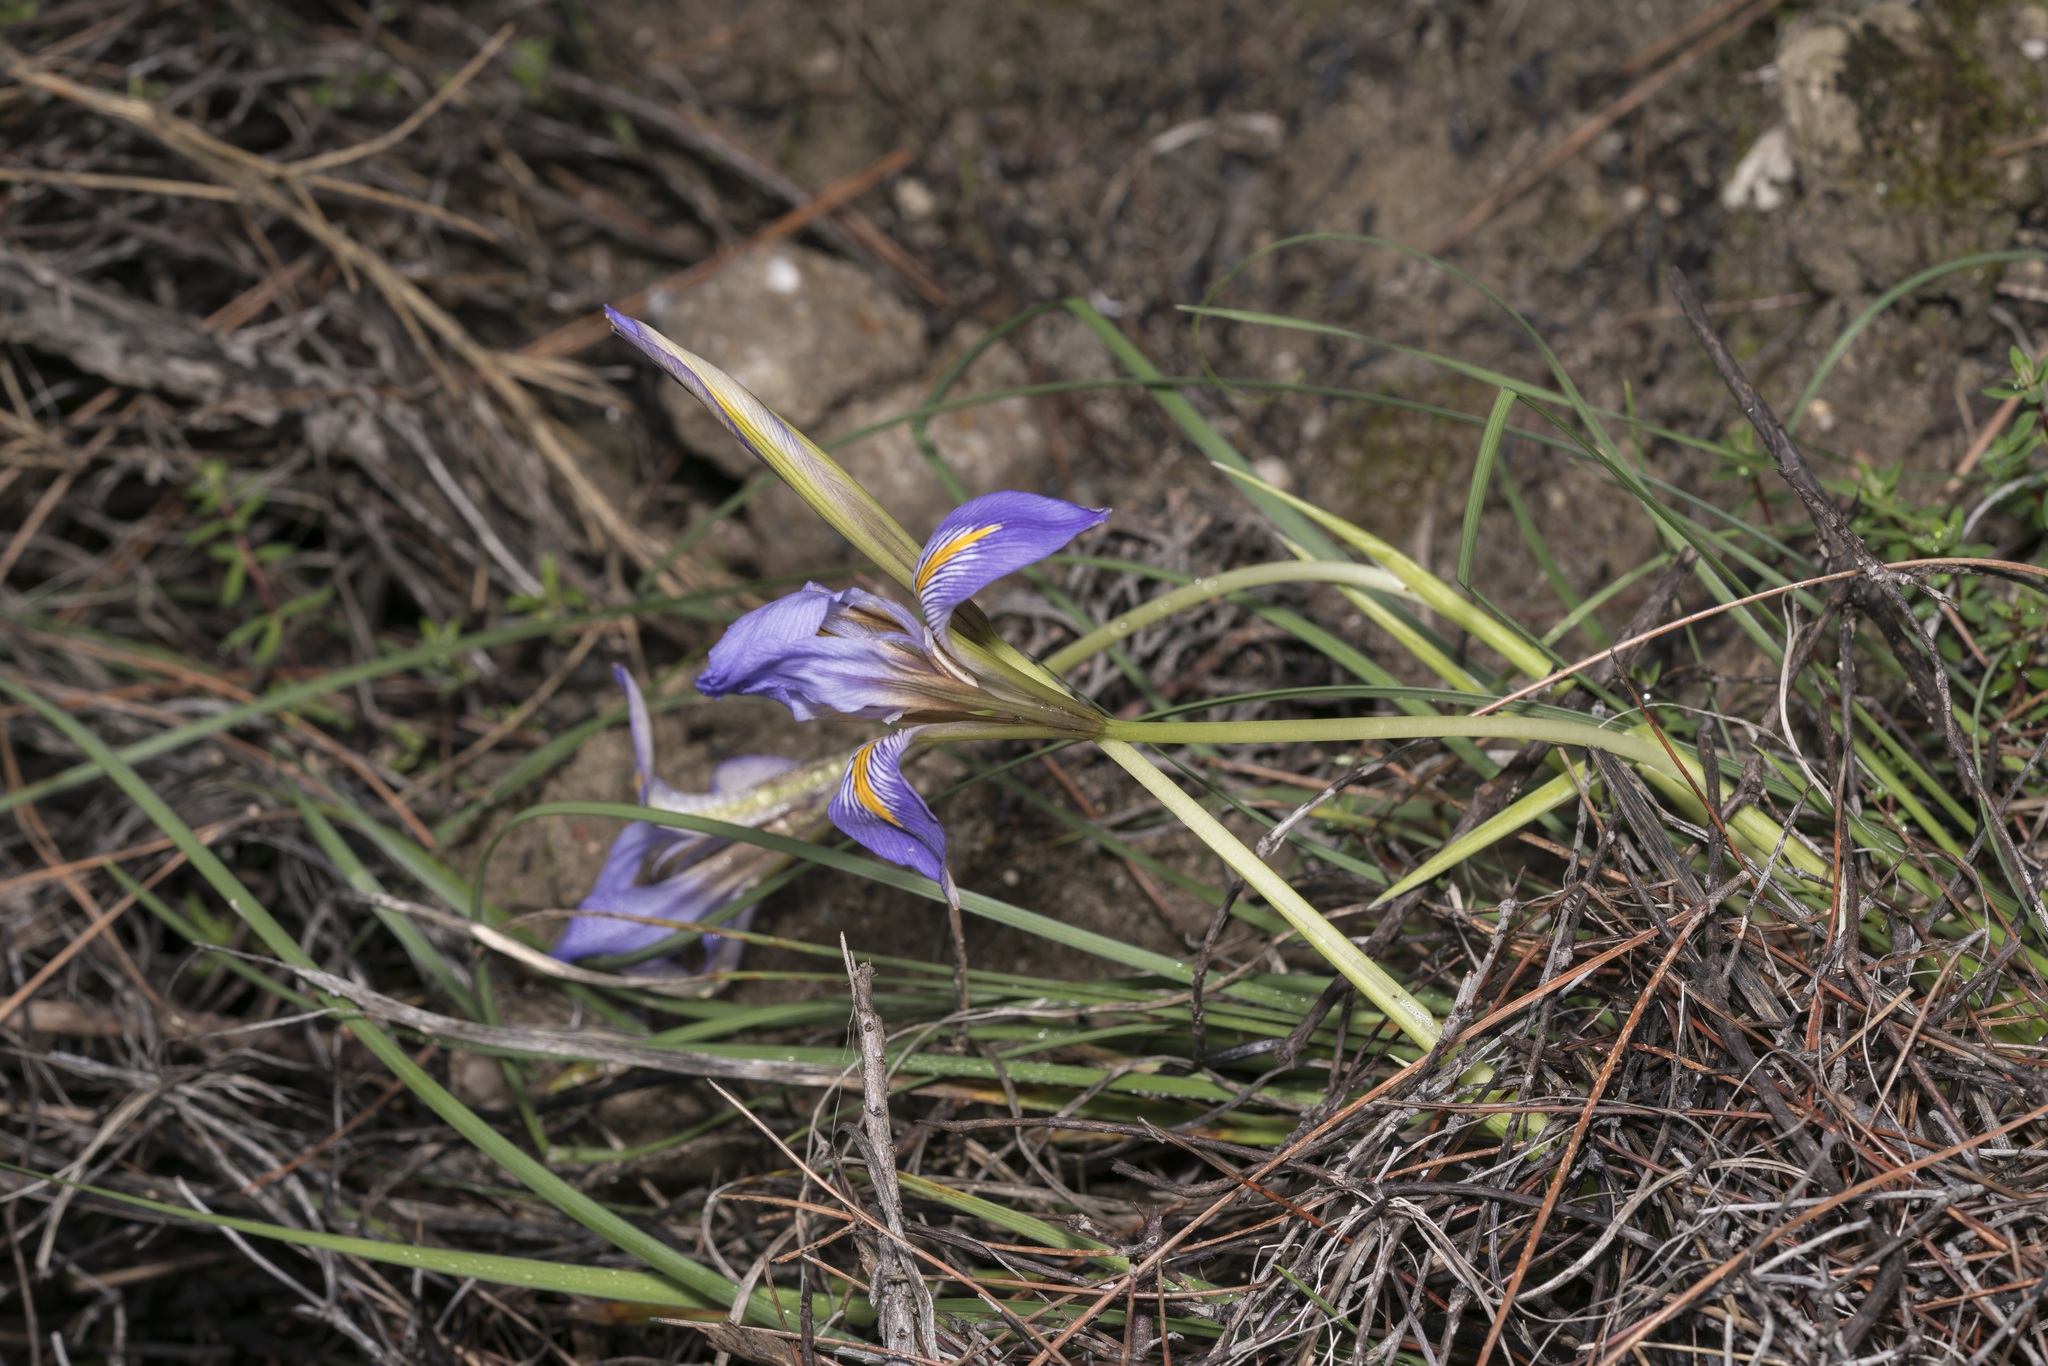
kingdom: Plantae
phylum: Tracheophyta
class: Liliopsida
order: Asparagales
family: Iridaceae
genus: Iris
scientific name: Iris unguicularis
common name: Algerian iris
